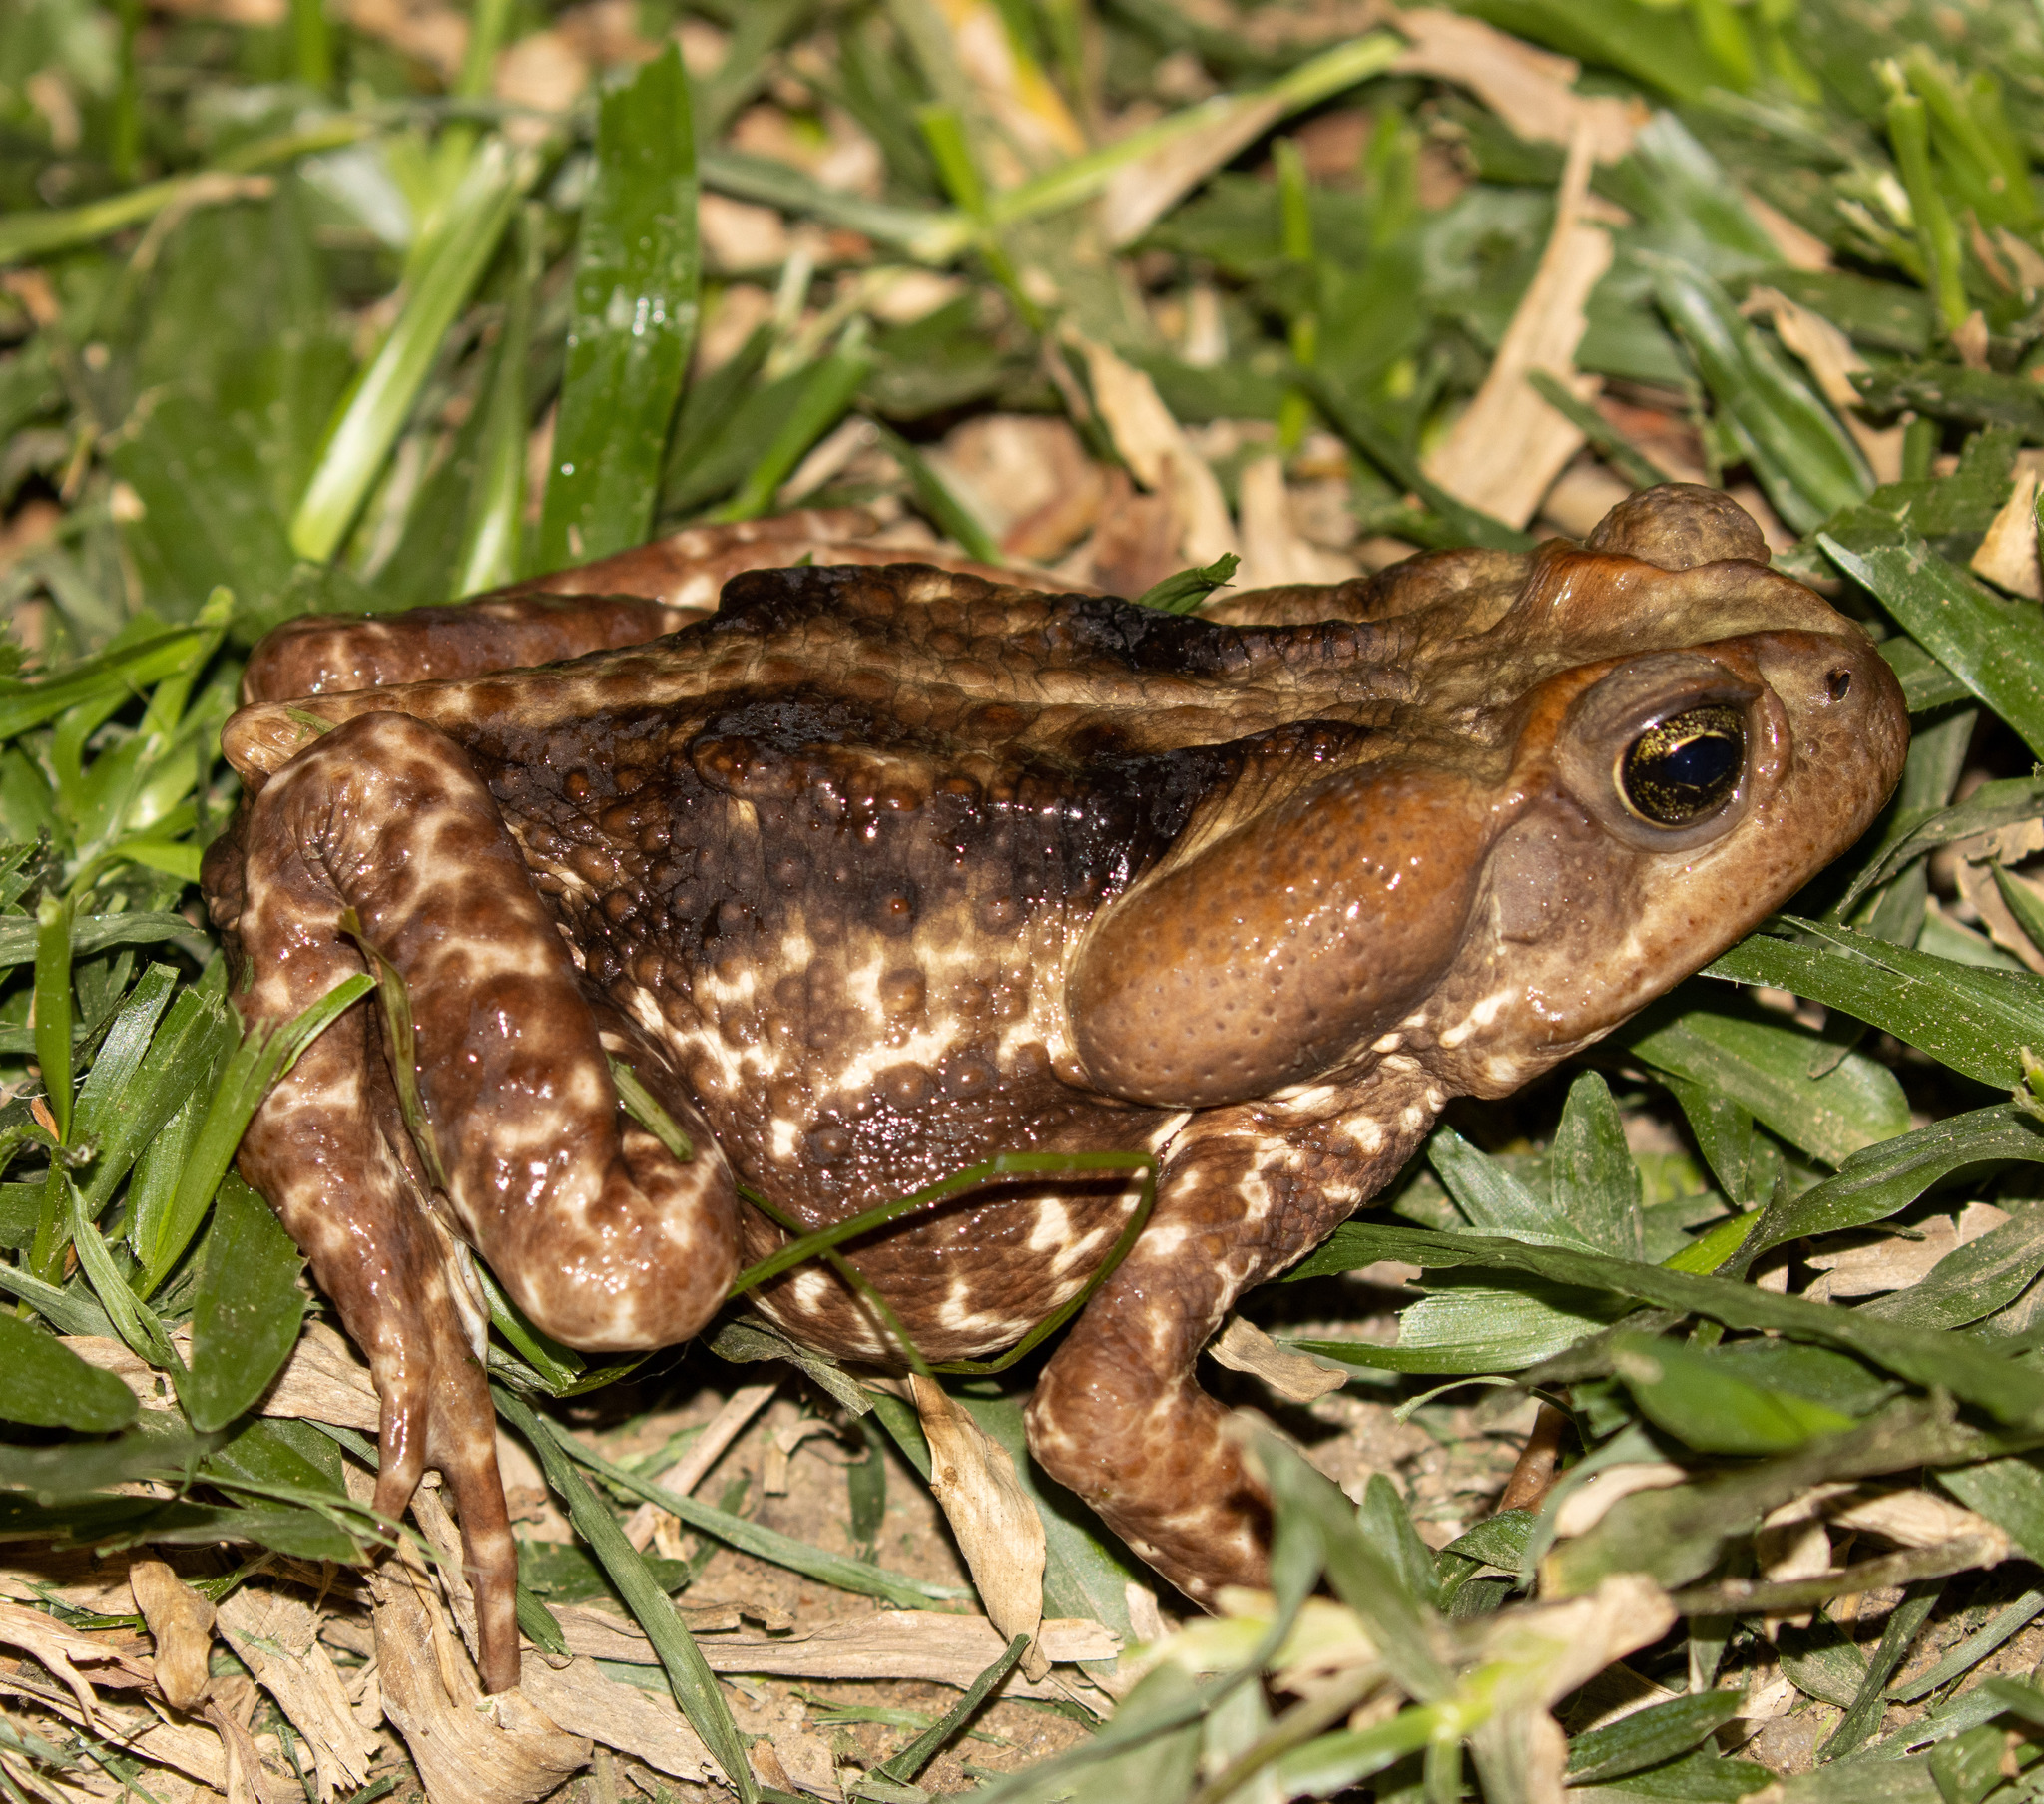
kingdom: Animalia
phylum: Chordata
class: Amphibia
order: Anura
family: Bufonidae
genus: Rhinella
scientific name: Rhinella icterica
